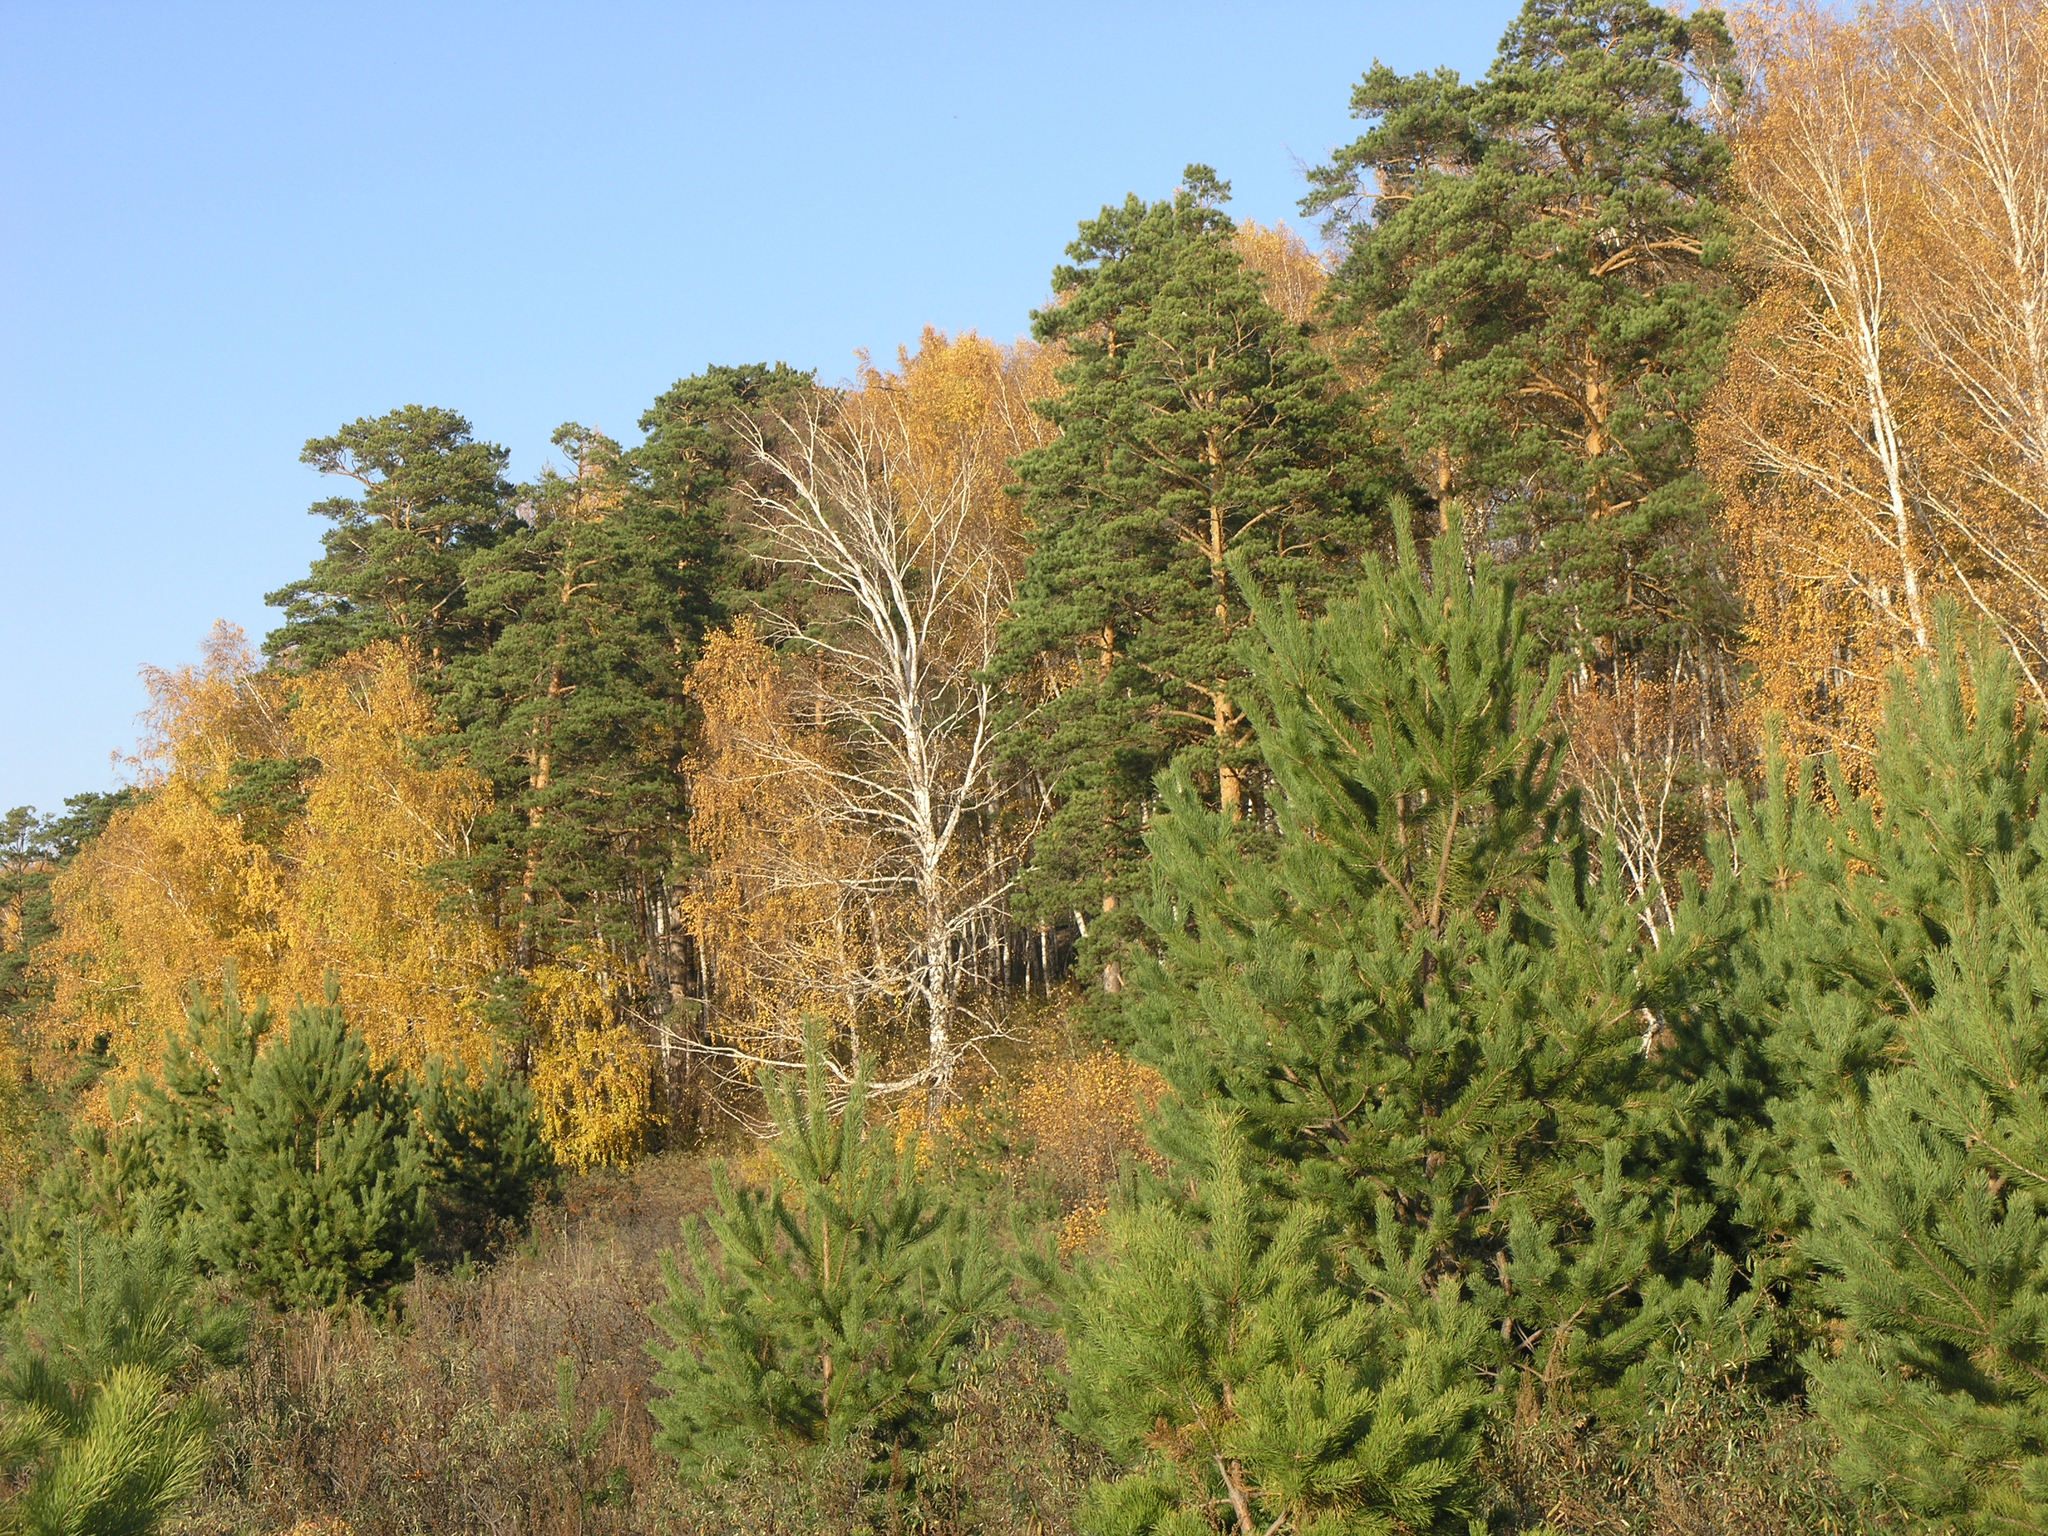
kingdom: Plantae
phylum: Tracheophyta
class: Magnoliopsida
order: Fagales
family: Betulaceae
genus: Betula
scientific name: Betula pendula
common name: Silver birch
